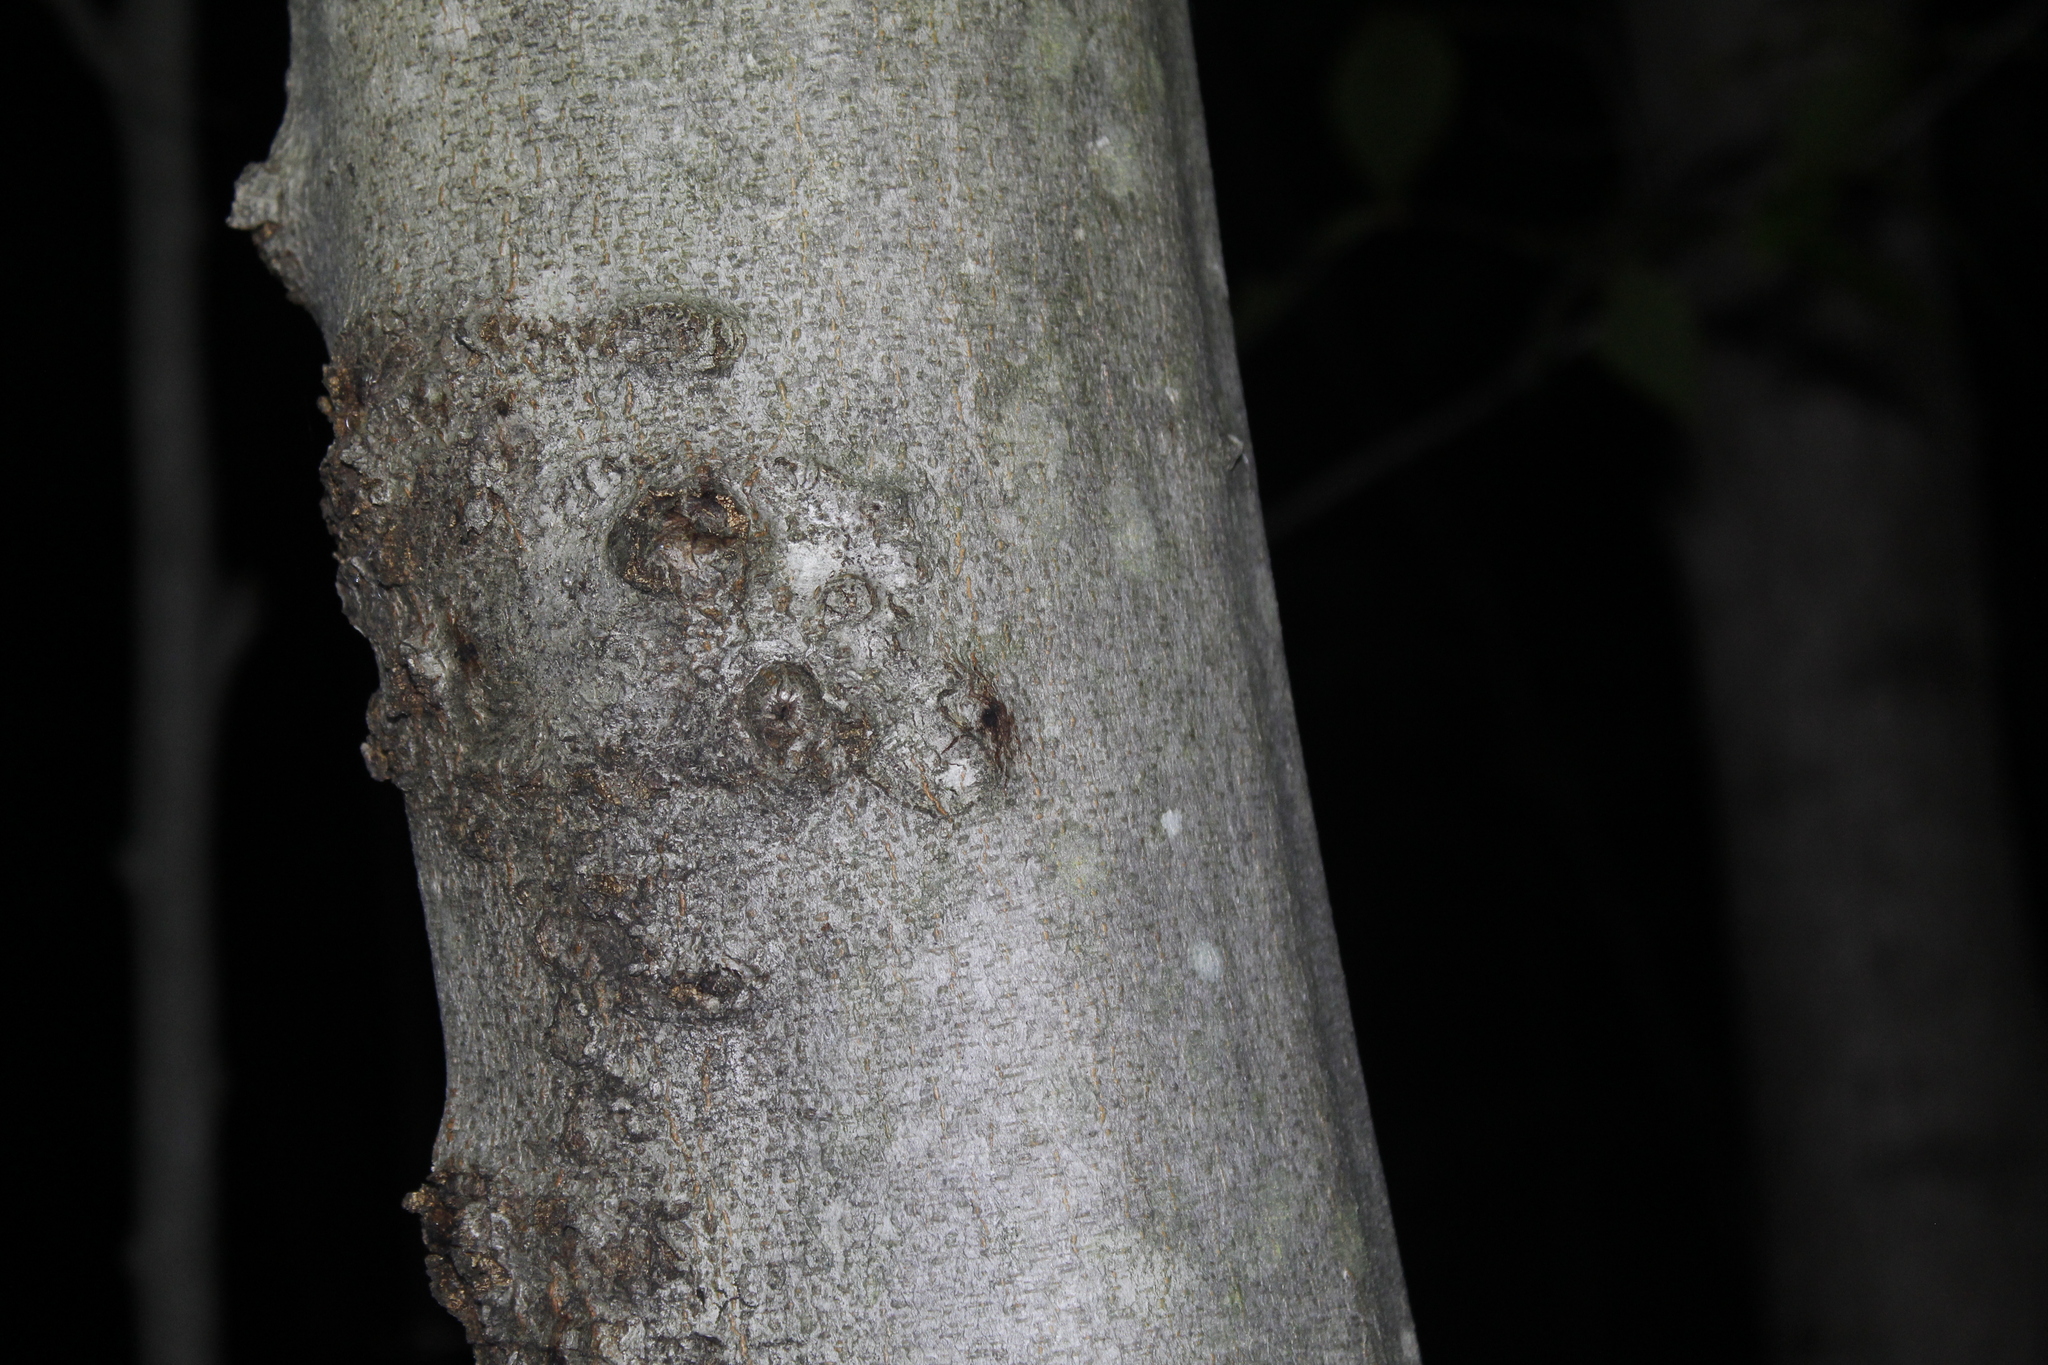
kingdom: Plantae
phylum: Tracheophyta
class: Magnoliopsida
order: Fagales
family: Fagaceae
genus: Fagus
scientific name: Fagus grandifolia
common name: American beech
